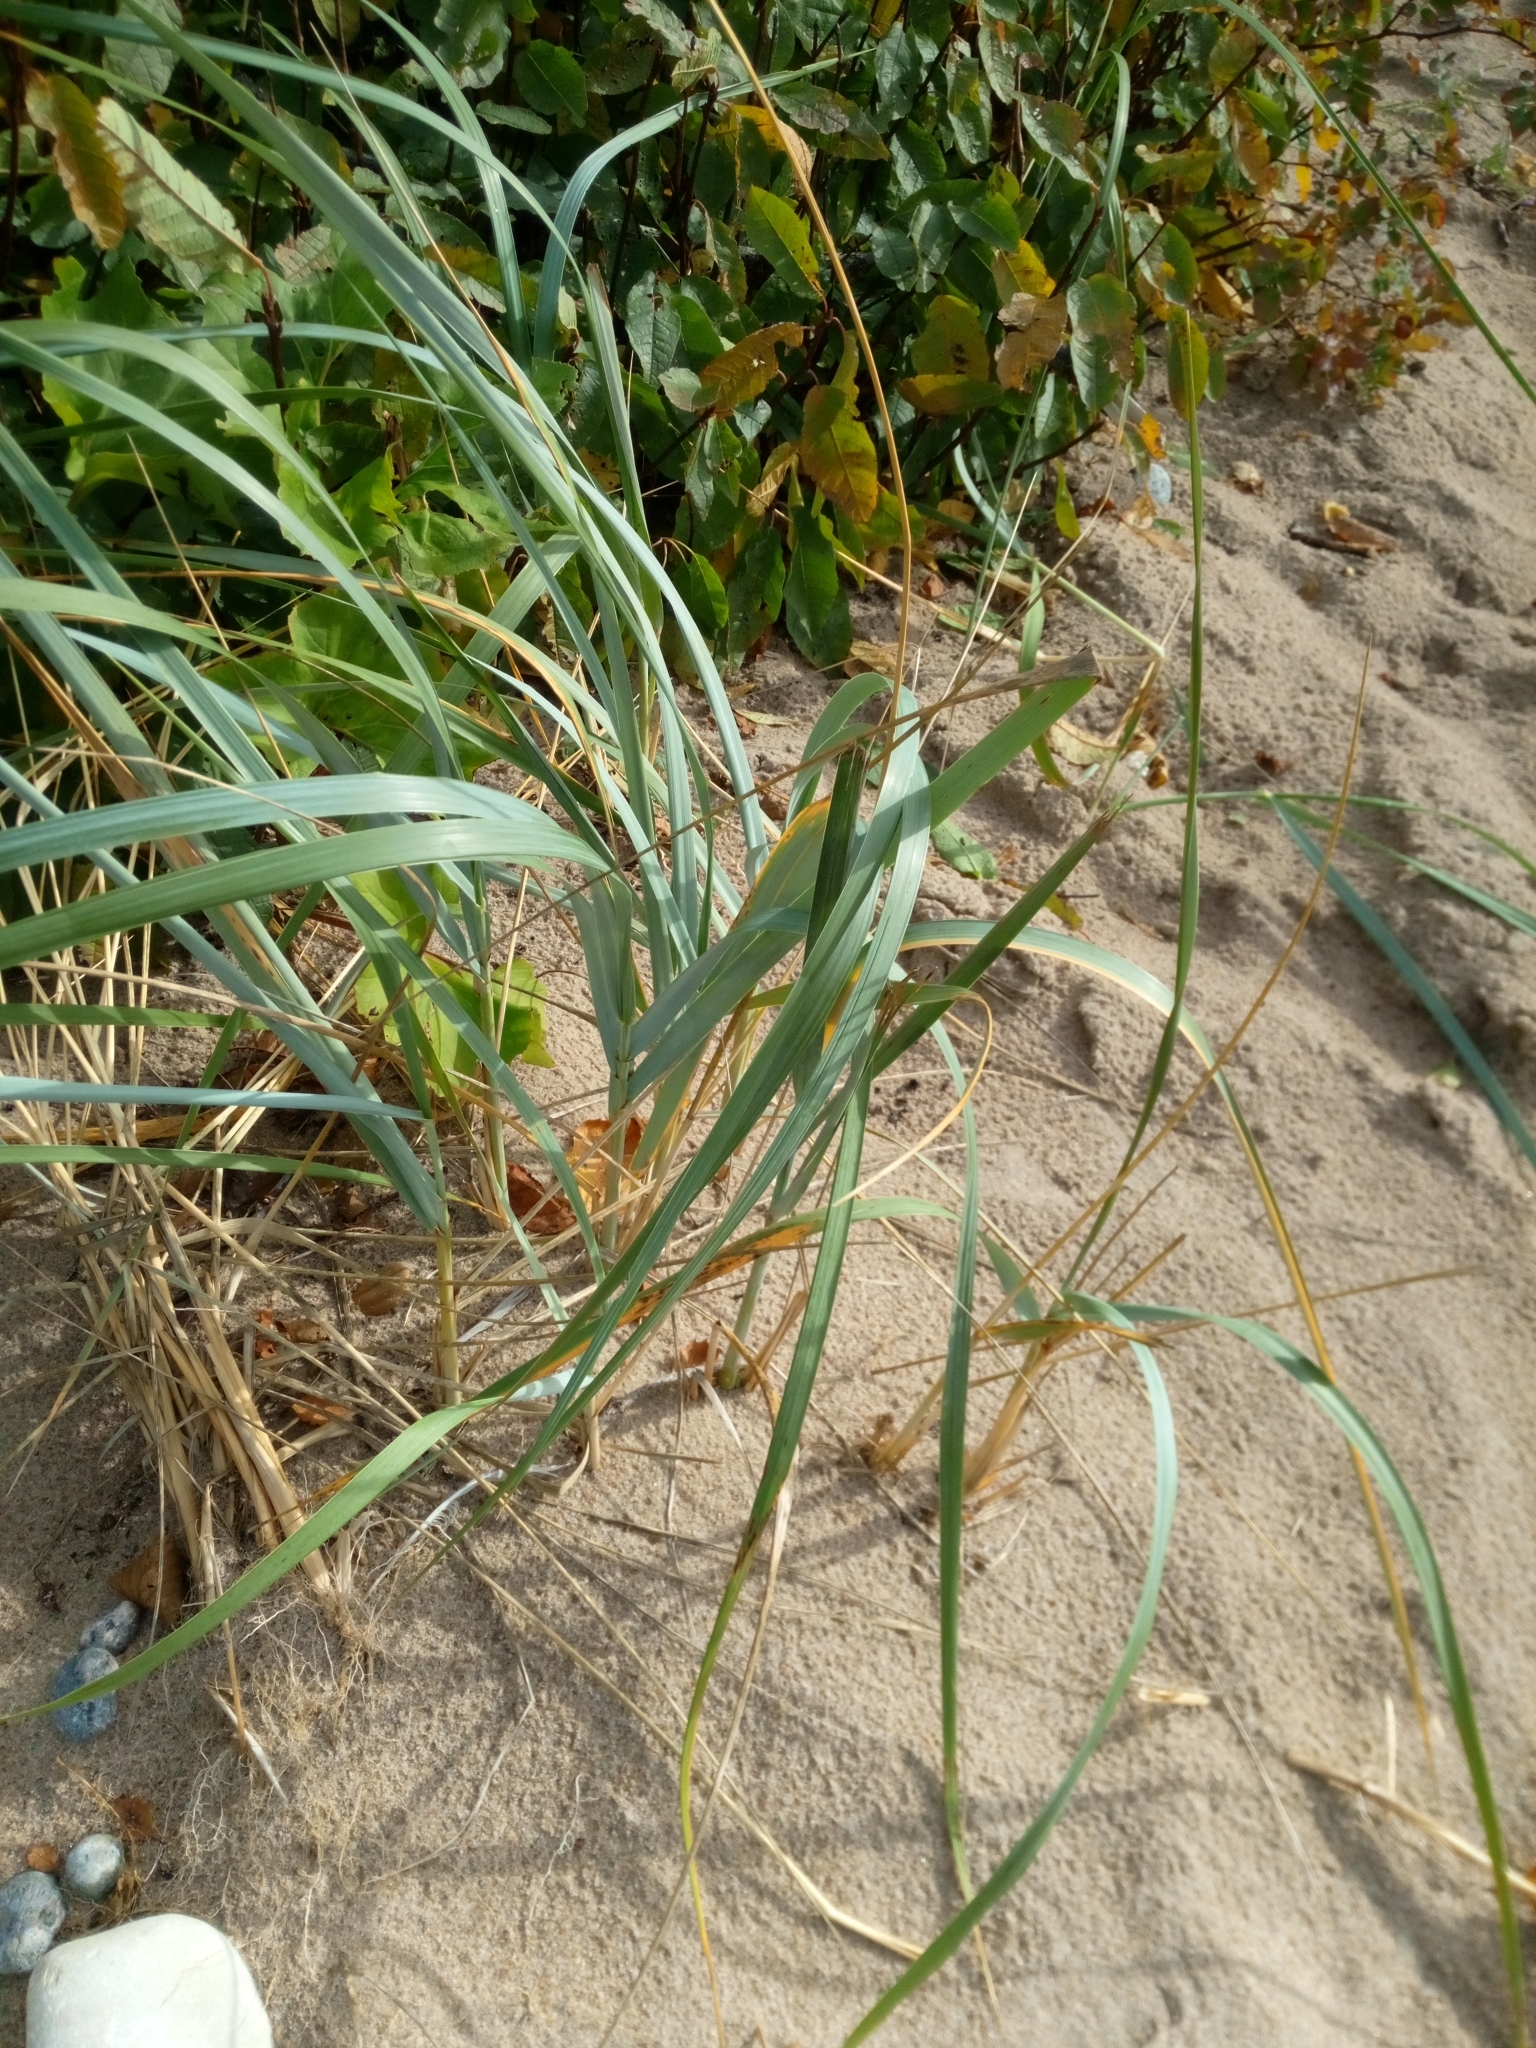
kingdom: Plantae
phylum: Tracheophyta
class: Liliopsida
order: Poales
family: Poaceae
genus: Leymus
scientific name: Leymus arenarius
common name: Lyme-grass
